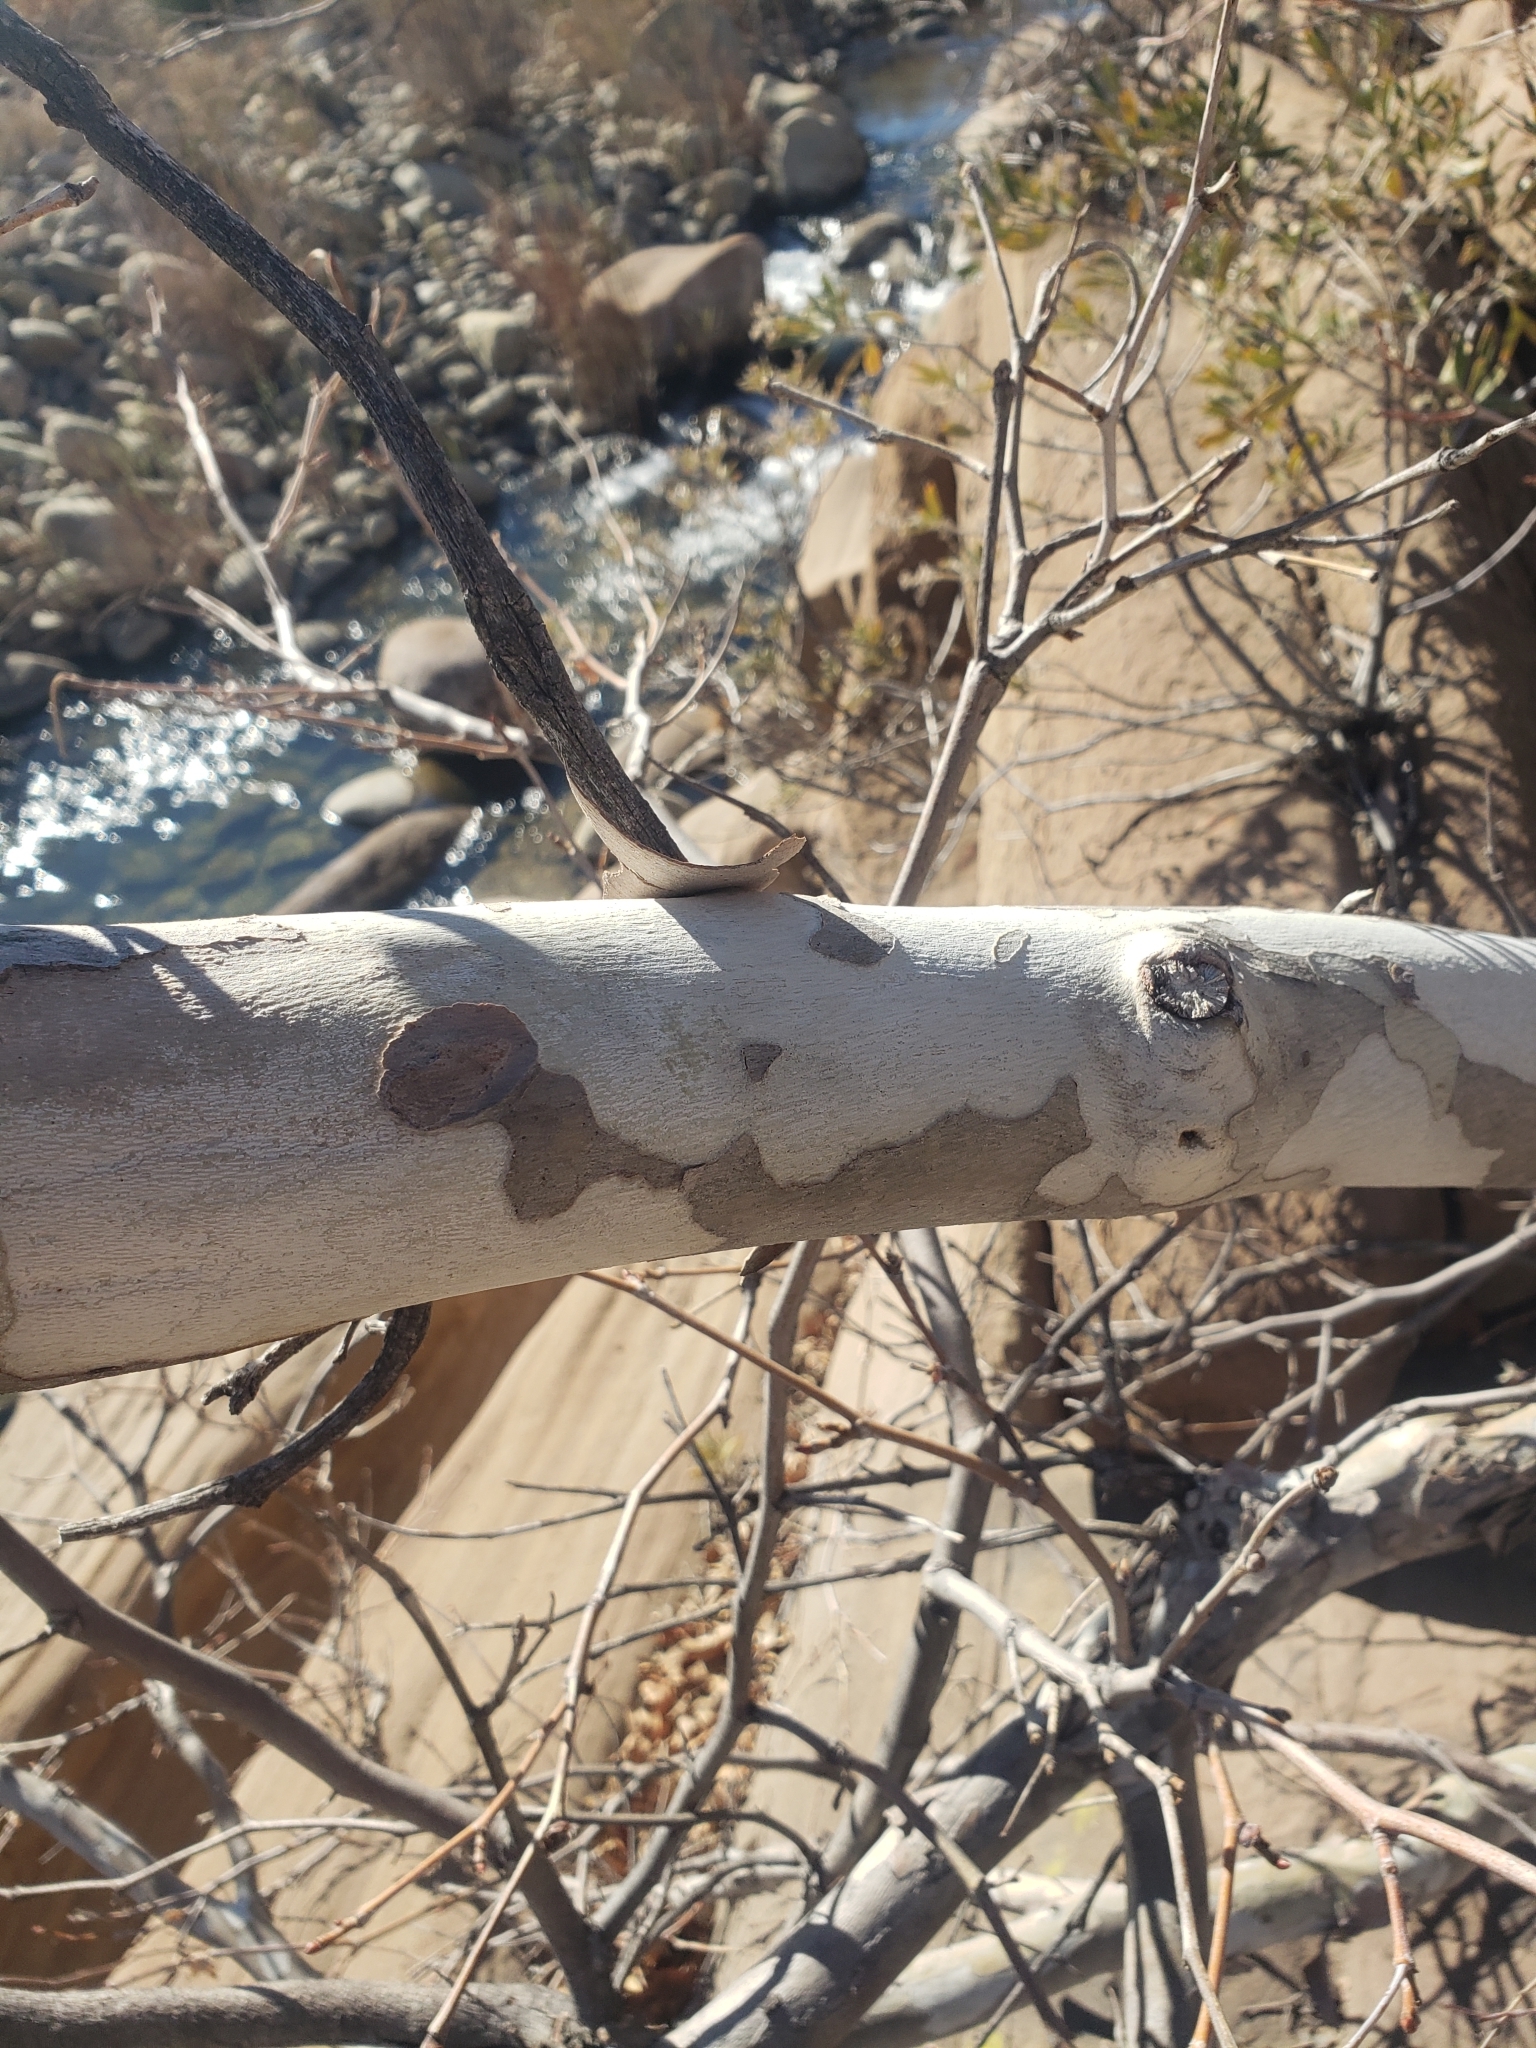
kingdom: Plantae
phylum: Tracheophyta
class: Magnoliopsida
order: Proteales
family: Platanaceae
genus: Platanus
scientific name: Platanus racemosa
